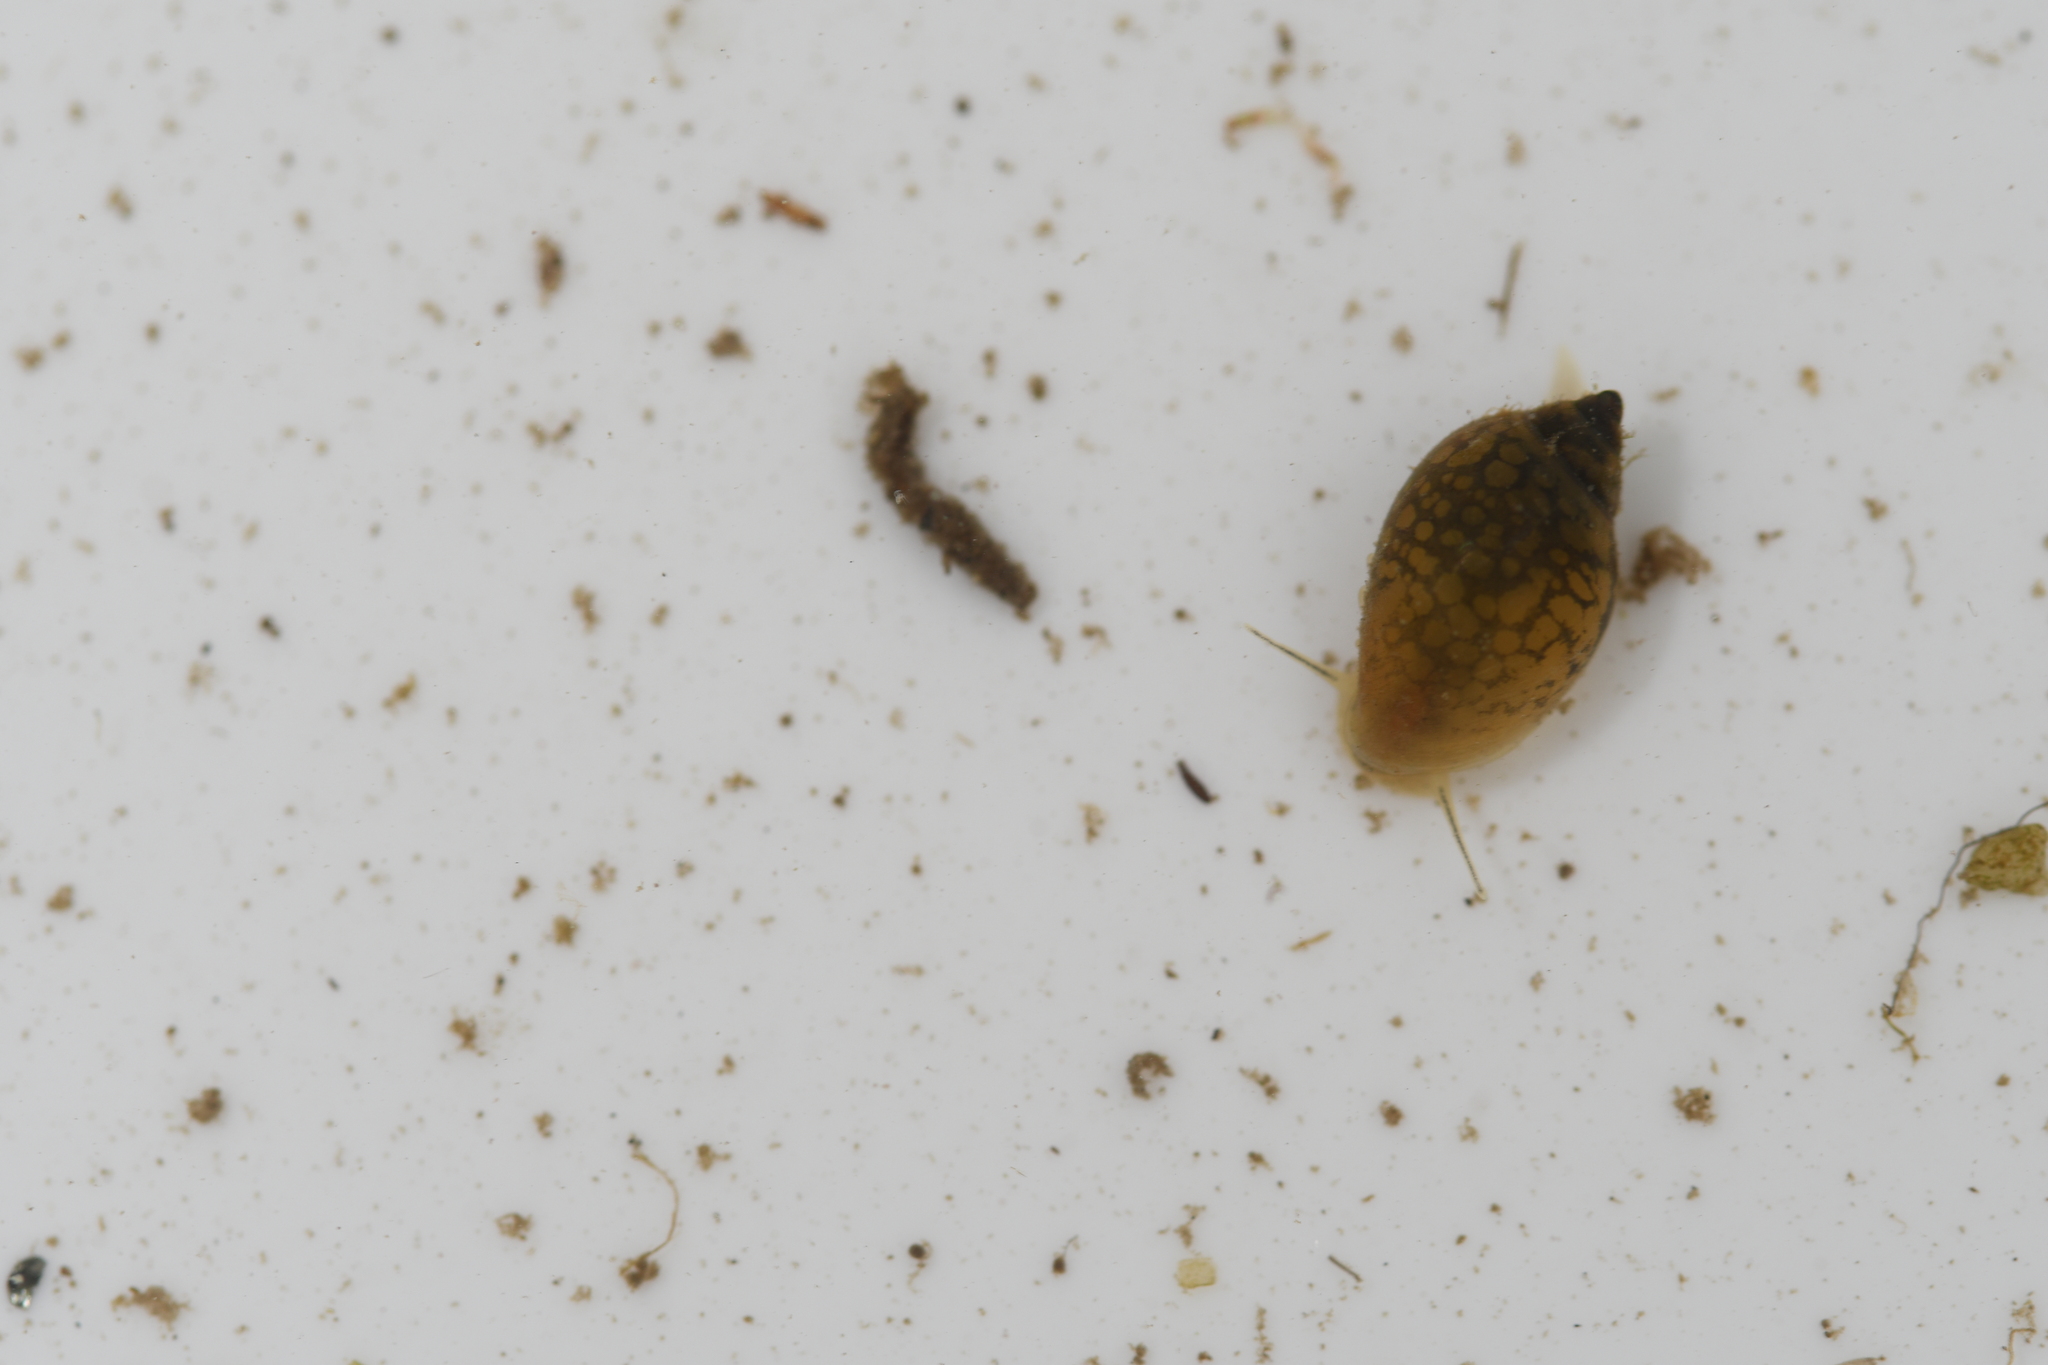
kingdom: Animalia
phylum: Mollusca
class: Gastropoda
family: Physidae
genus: Physella
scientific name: Physella acuta
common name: European physa
